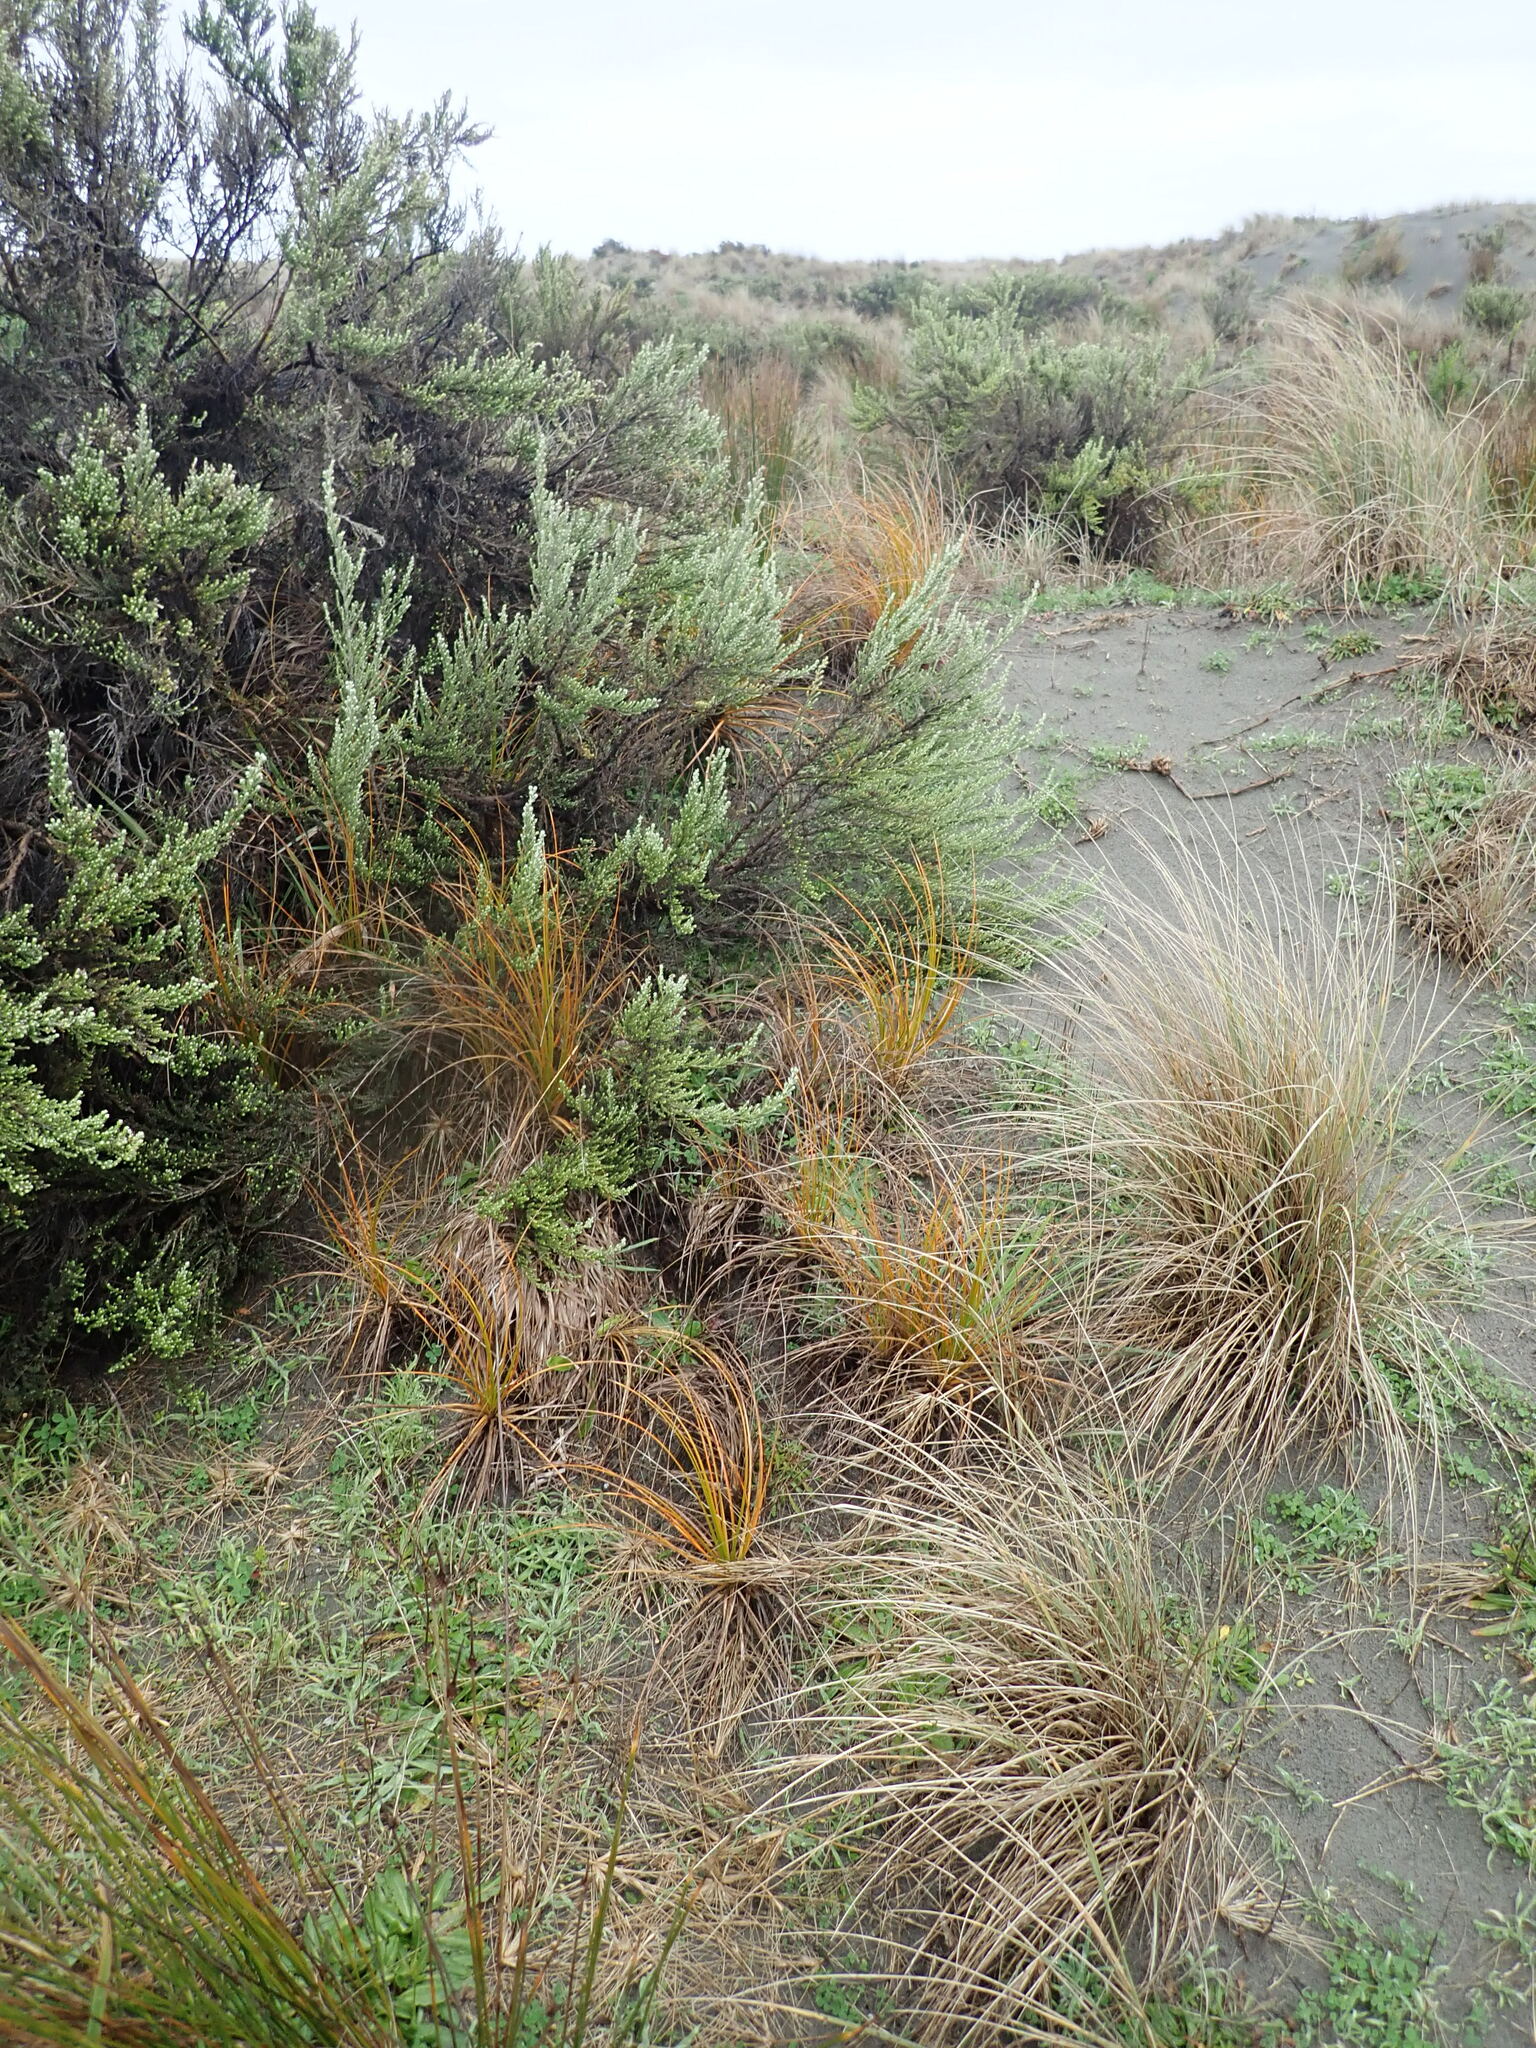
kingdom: Plantae
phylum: Tracheophyta
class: Liliopsida
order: Poales
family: Cyperaceae
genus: Ficinia
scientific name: Ficinia spiralis
